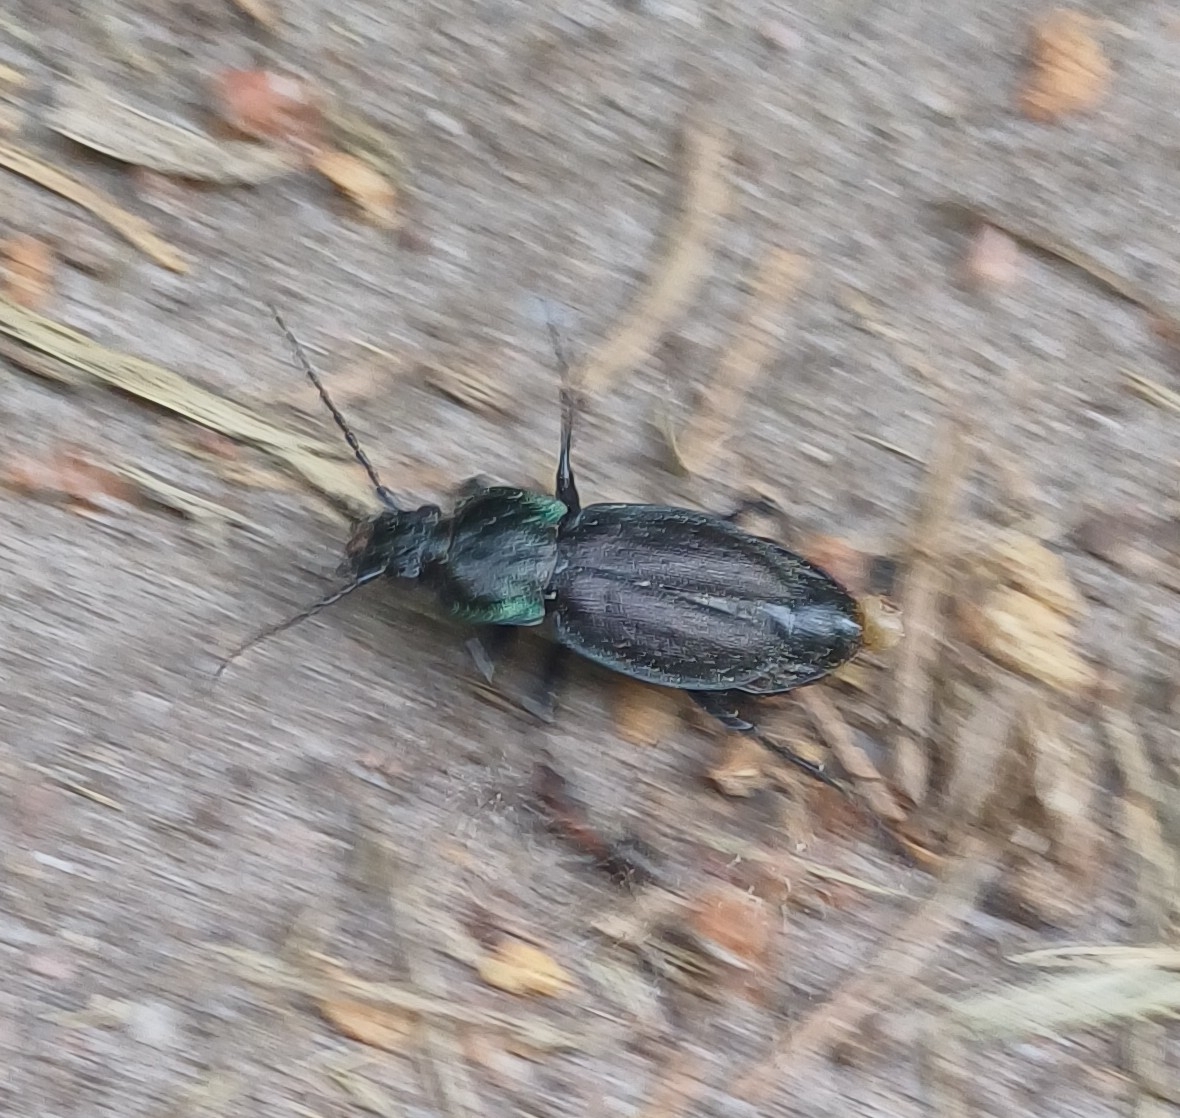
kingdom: Animalia
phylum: Arthropoda
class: Insecta
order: Coleoptera
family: Carabidae
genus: Carabus
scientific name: Carabus nemoralis
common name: European ground beetle
